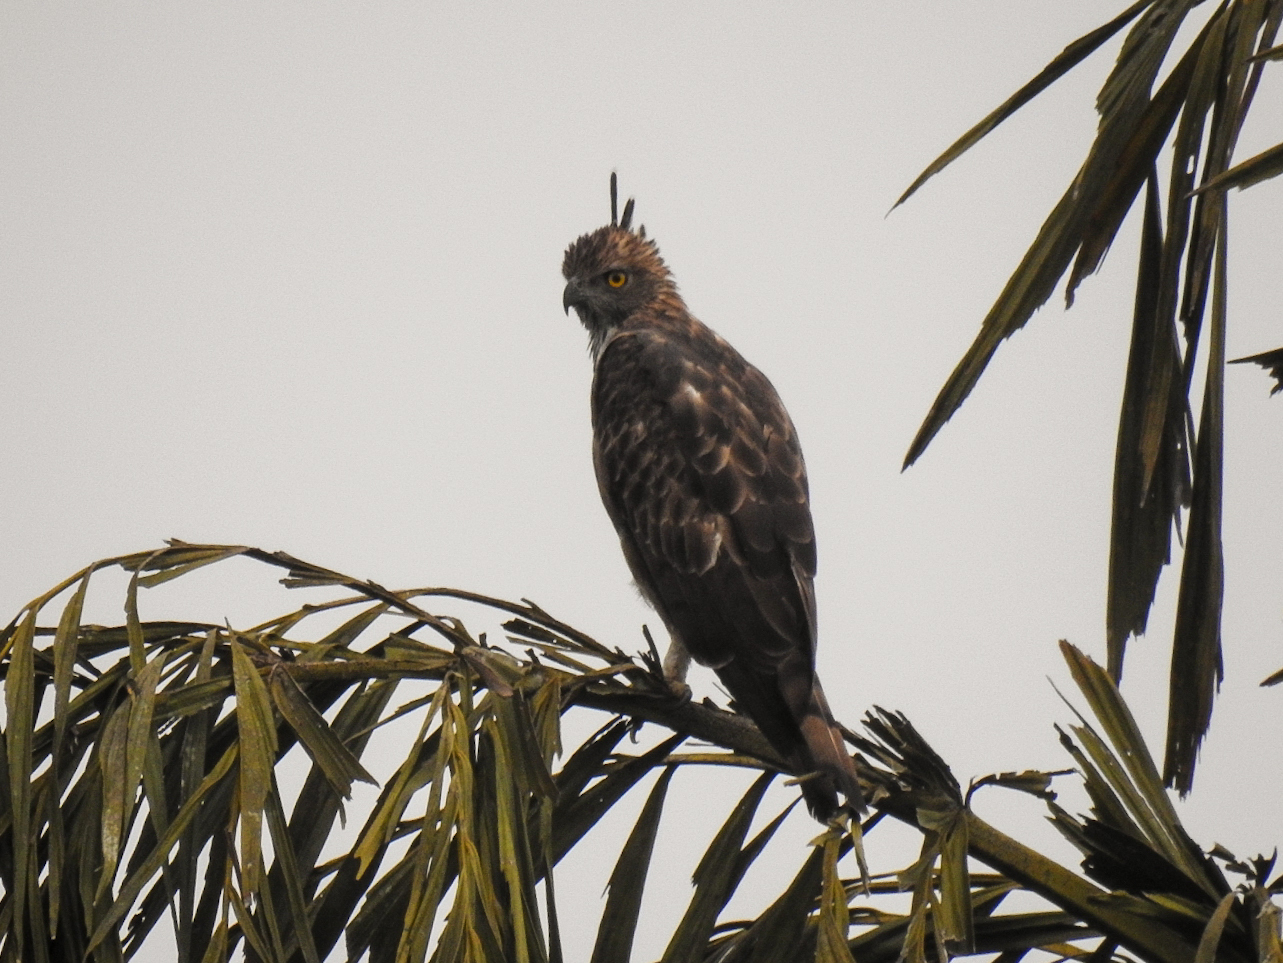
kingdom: Animalia
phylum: Chordata
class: Aves
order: Accipitriformes
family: Accipitridae
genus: Nisaetus
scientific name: Nisaetus cirrhatus
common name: Changeable hawk-eagle
